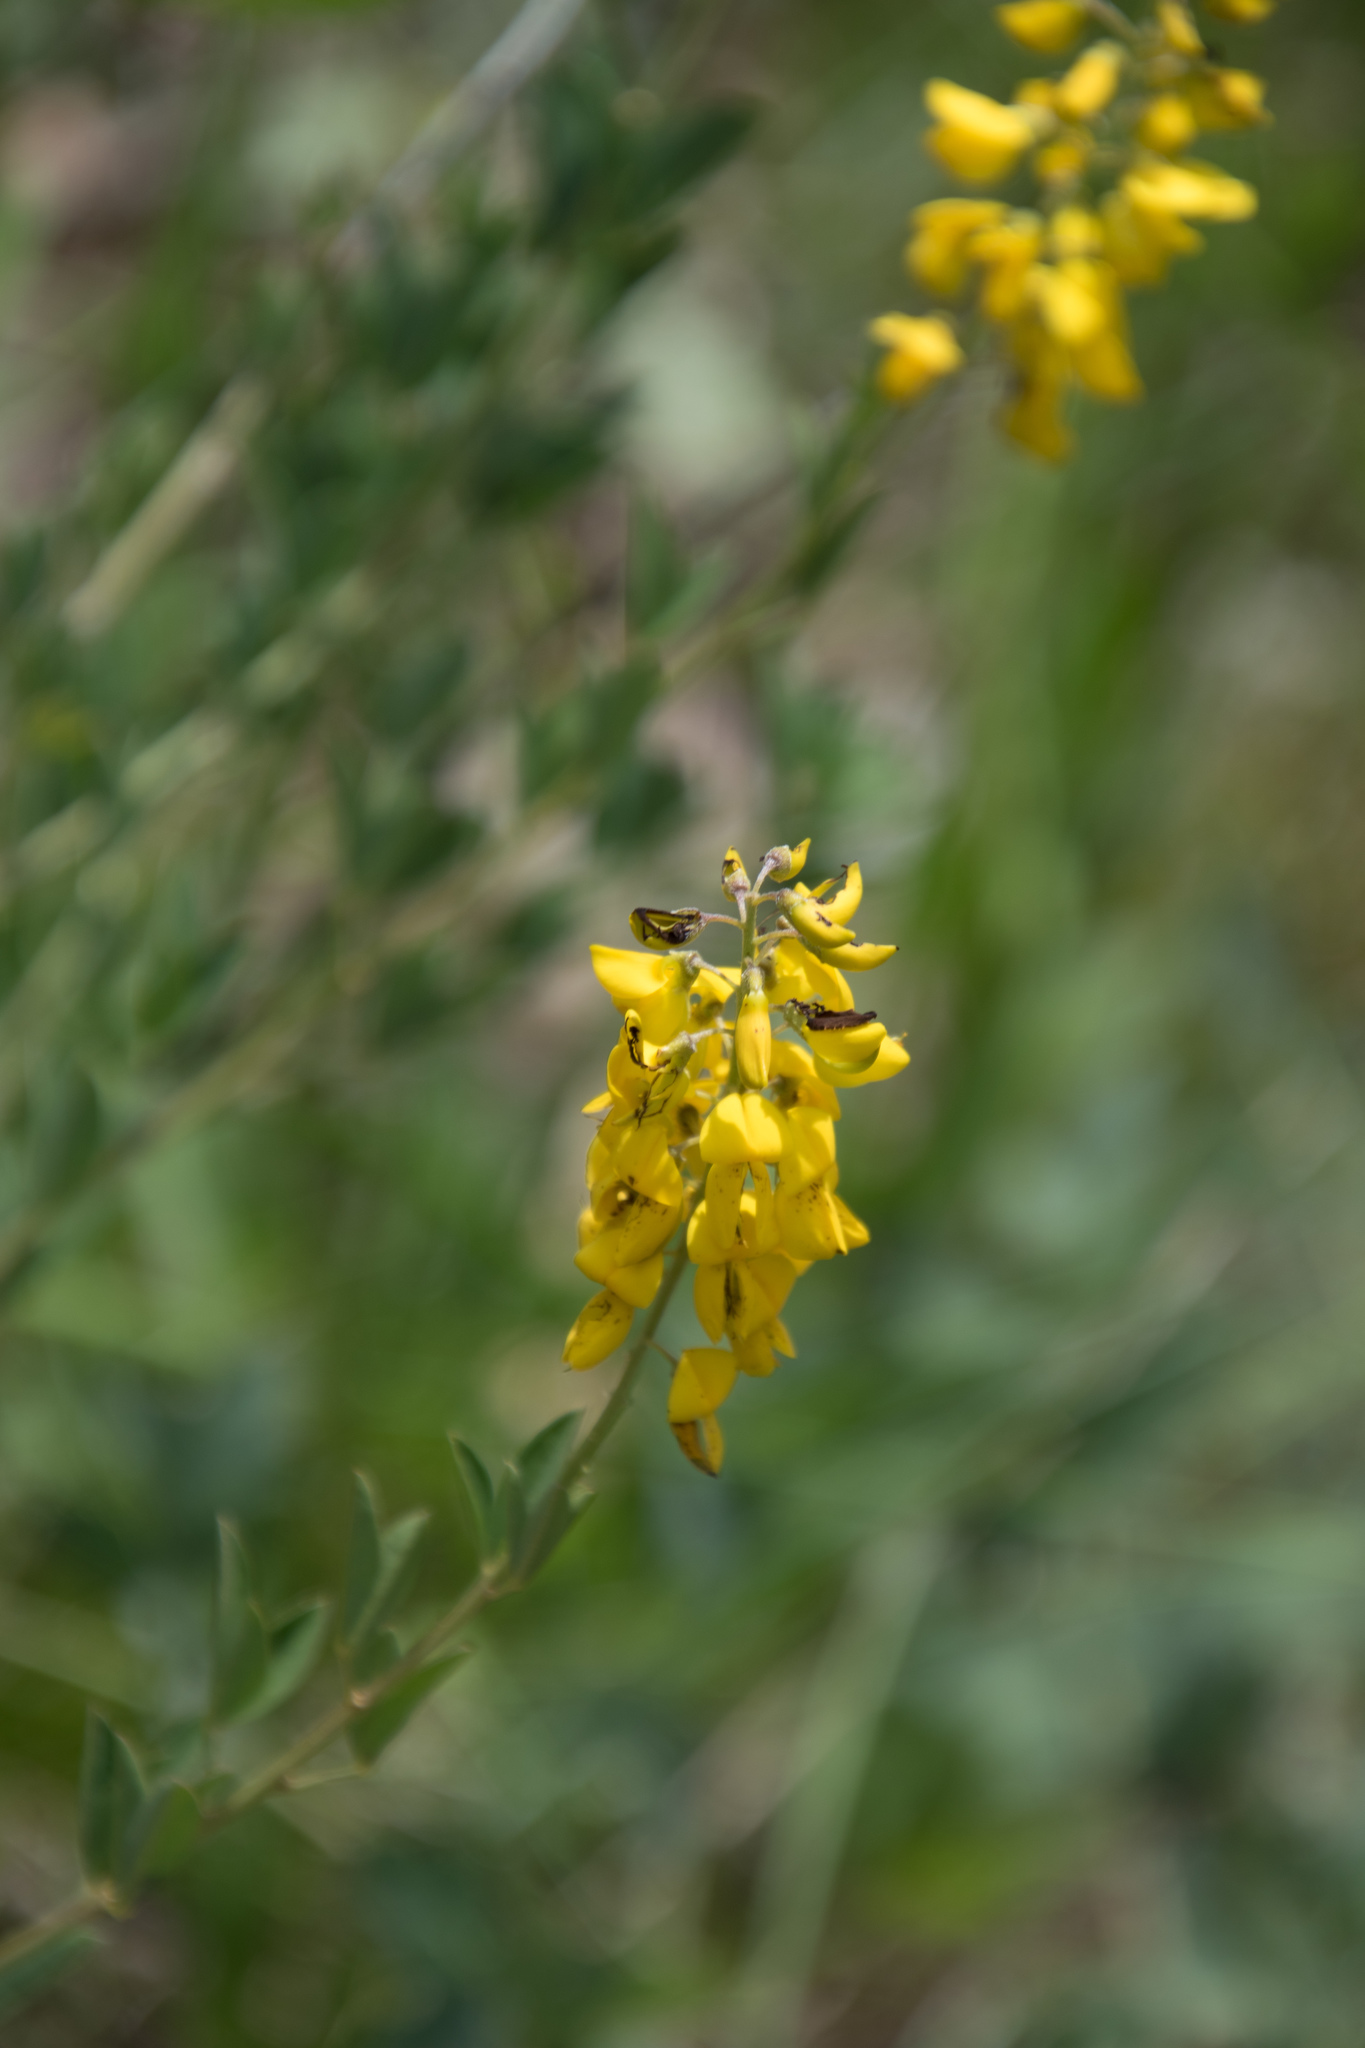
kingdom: Plantae
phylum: Tracheophyta
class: Magnoliopsida
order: Fabales
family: Fabaceae
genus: Cytisus
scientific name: Cytisus nigricans
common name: Black broom
